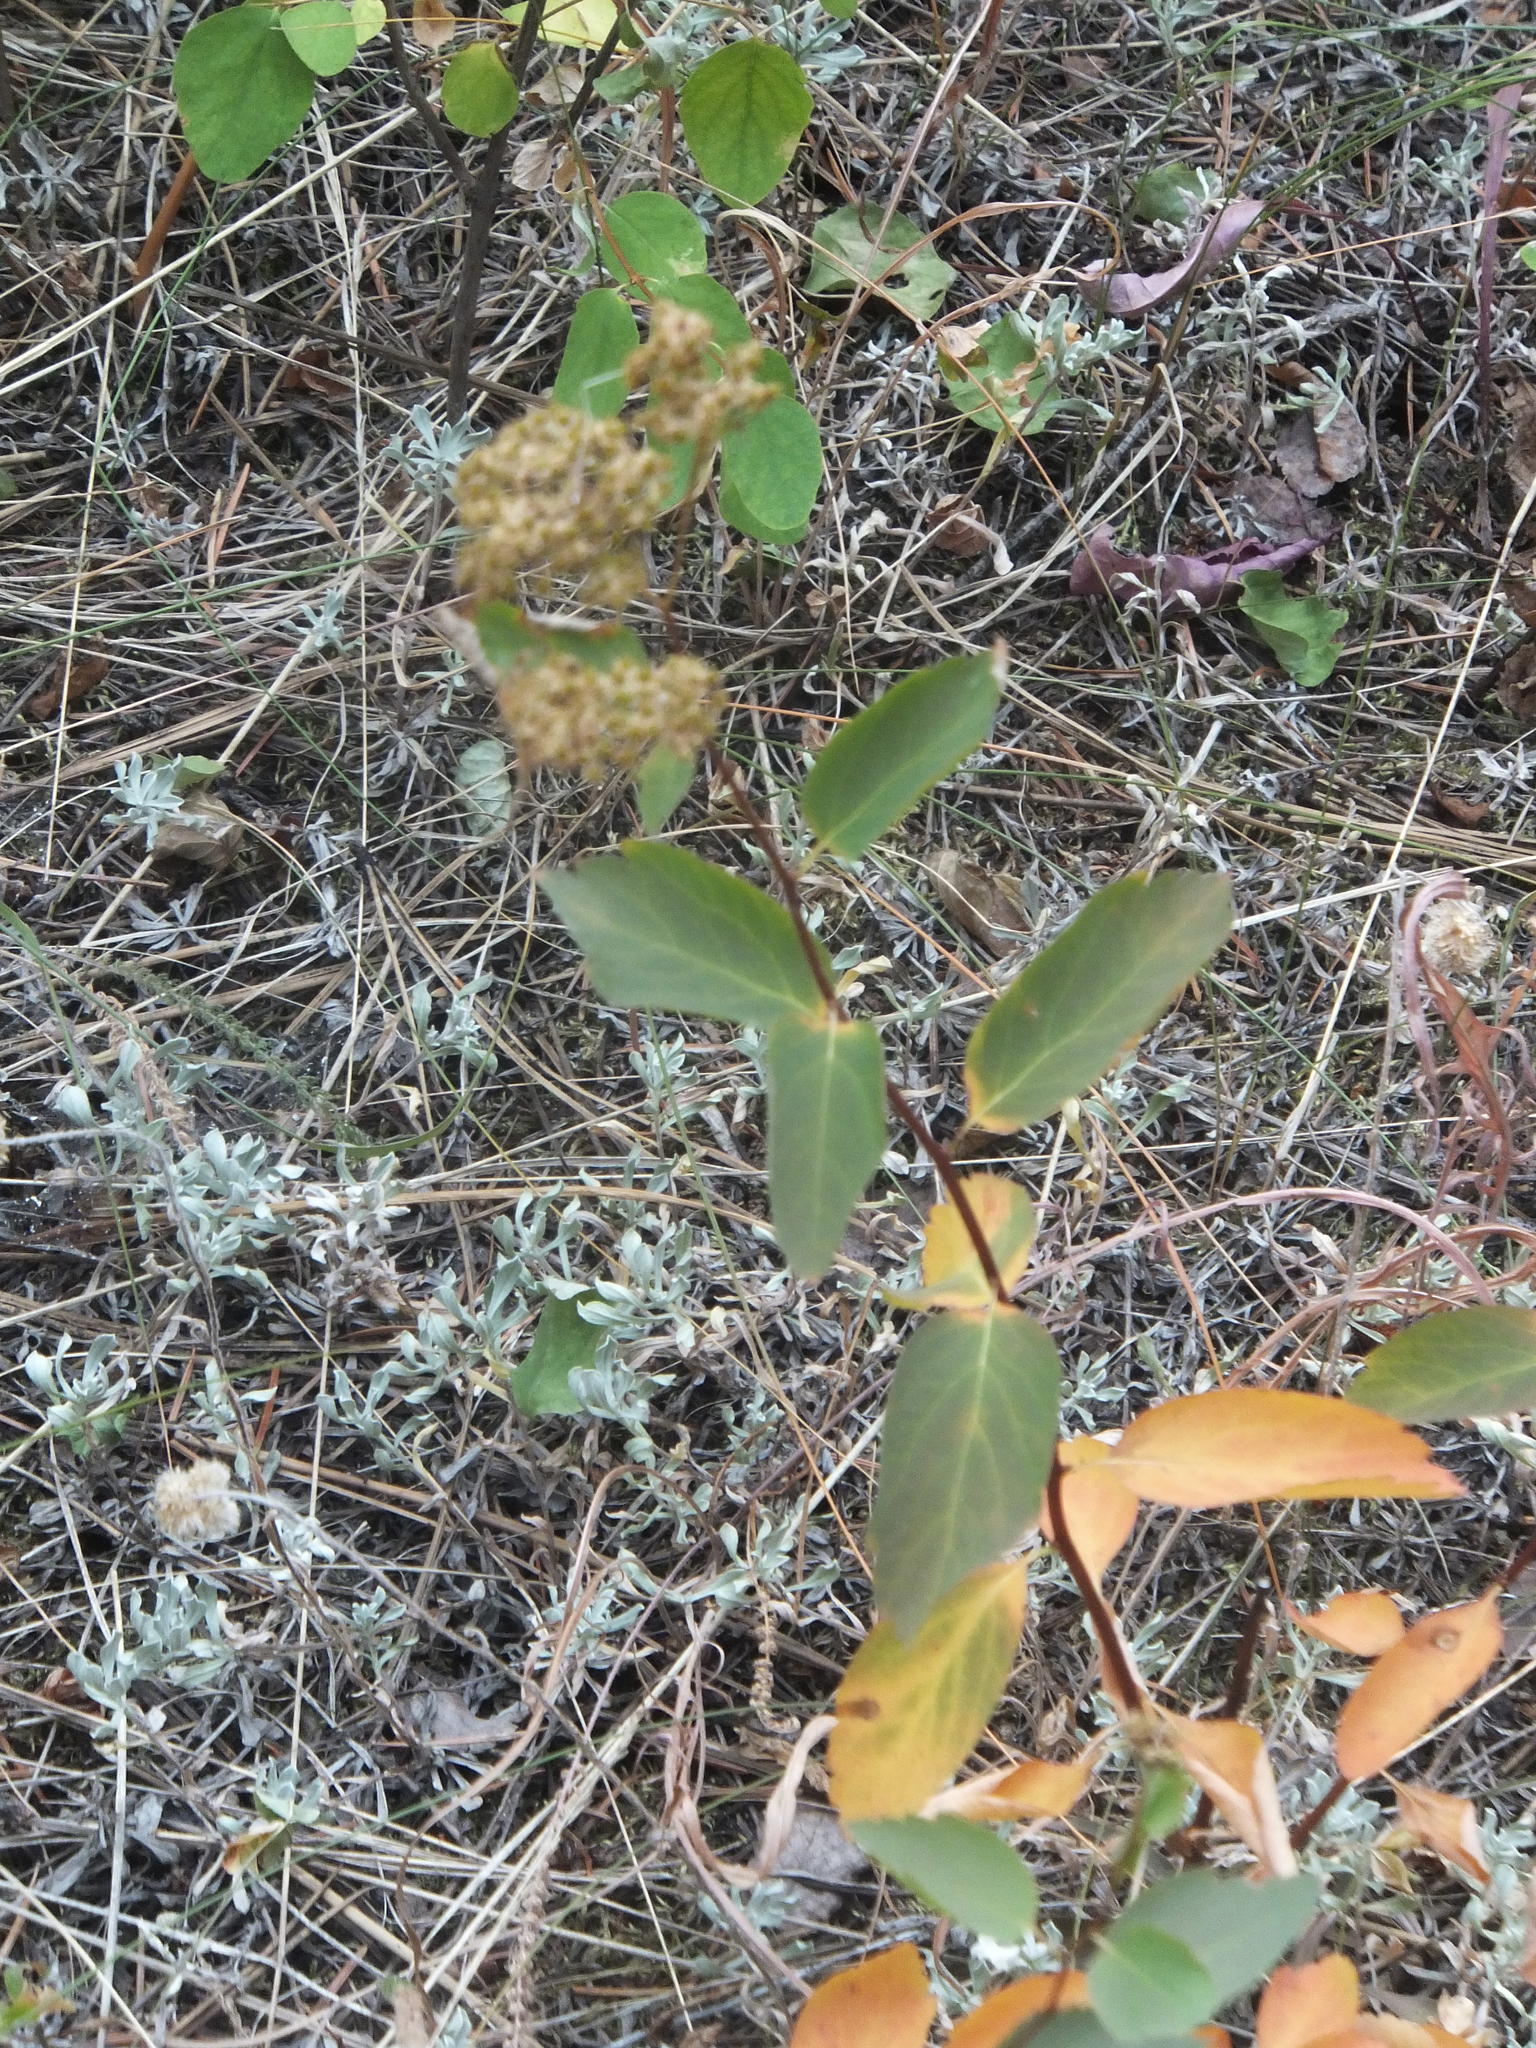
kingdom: Plantae
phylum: Tracheophyta
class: Magnoliopsida
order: Rosales
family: Rosaceae
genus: Spiraea
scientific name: Spiraea lucida
